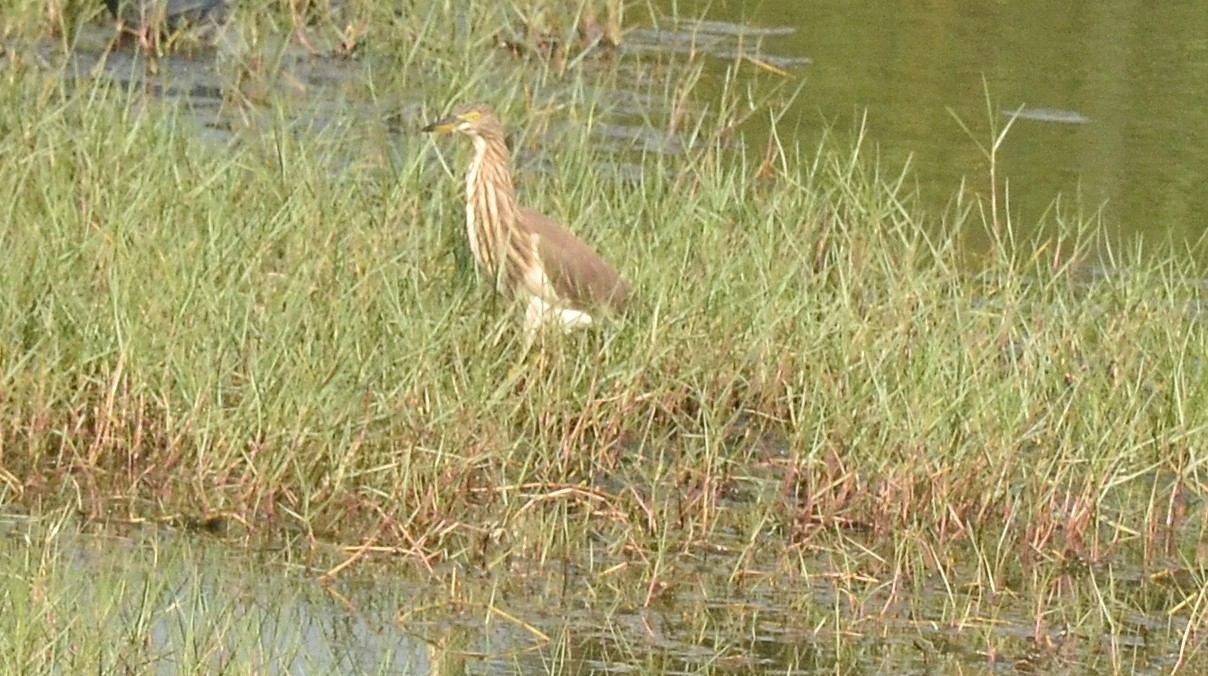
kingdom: Animalia
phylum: Chordata
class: Aves
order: Pelecaniformes
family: Ardeidae
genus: Ardeola
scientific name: Ardeola grayii
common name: Indian pond heron
